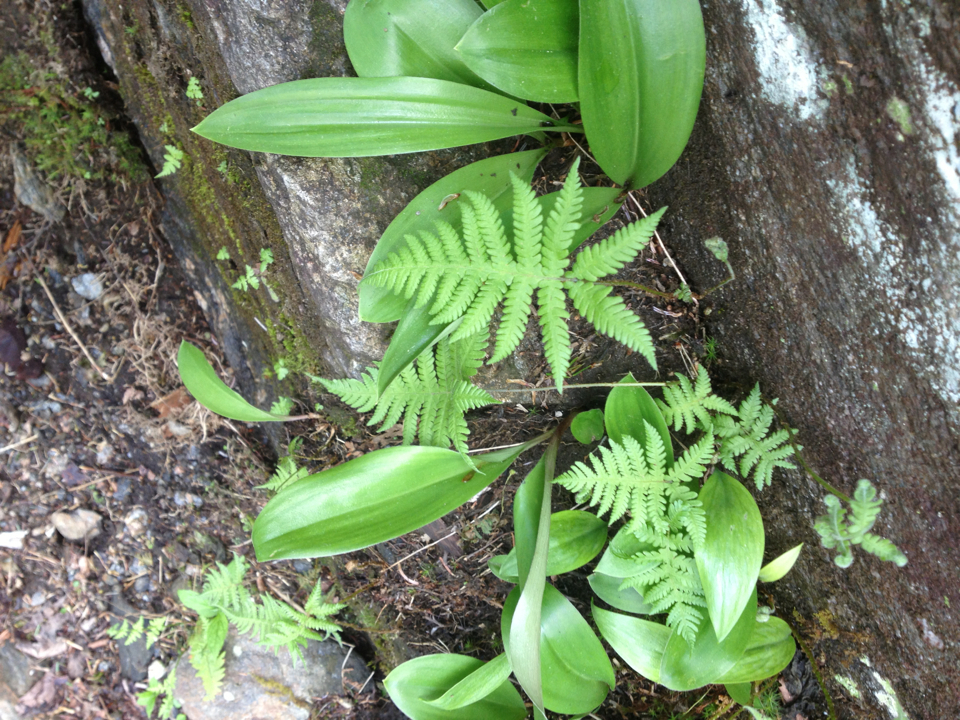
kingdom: Plantae
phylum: Tracheophyta
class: Polypodiopsida
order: Polypodiales
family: Thelypteridaceae
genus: Phegopteris
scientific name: Phegopteris connectilis
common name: Beech fern
